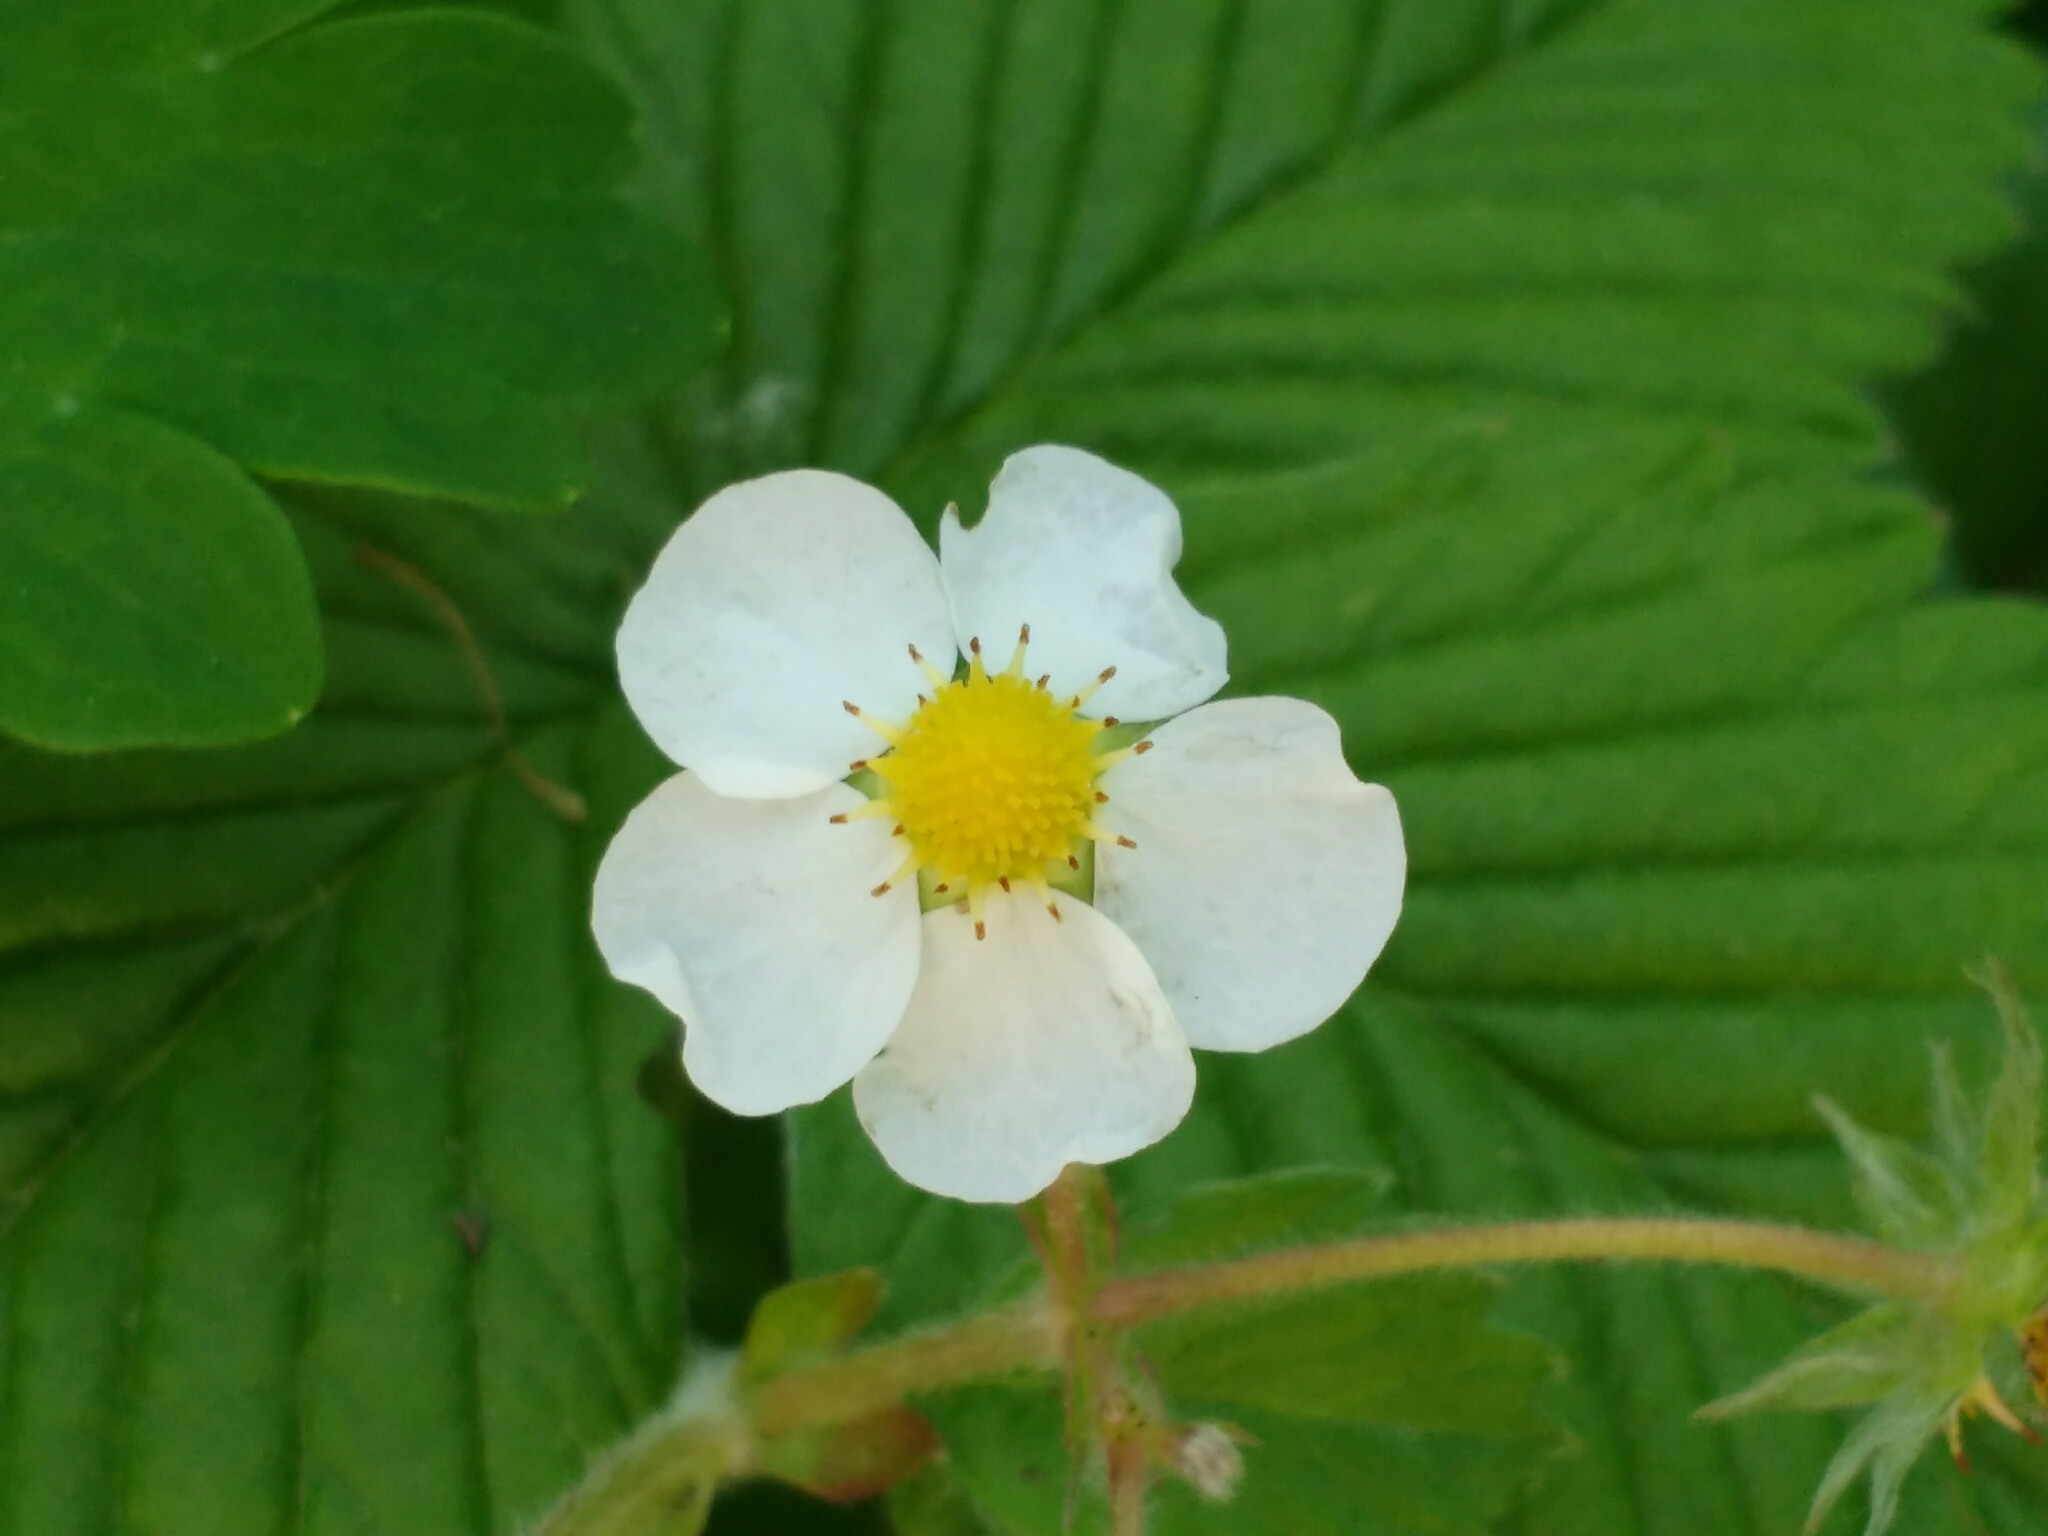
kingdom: Plantae
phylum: Tracheophyta
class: Magnoliopsida
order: Rosales
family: Rosaceae
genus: Fragaria
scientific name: Fragaria moschata
